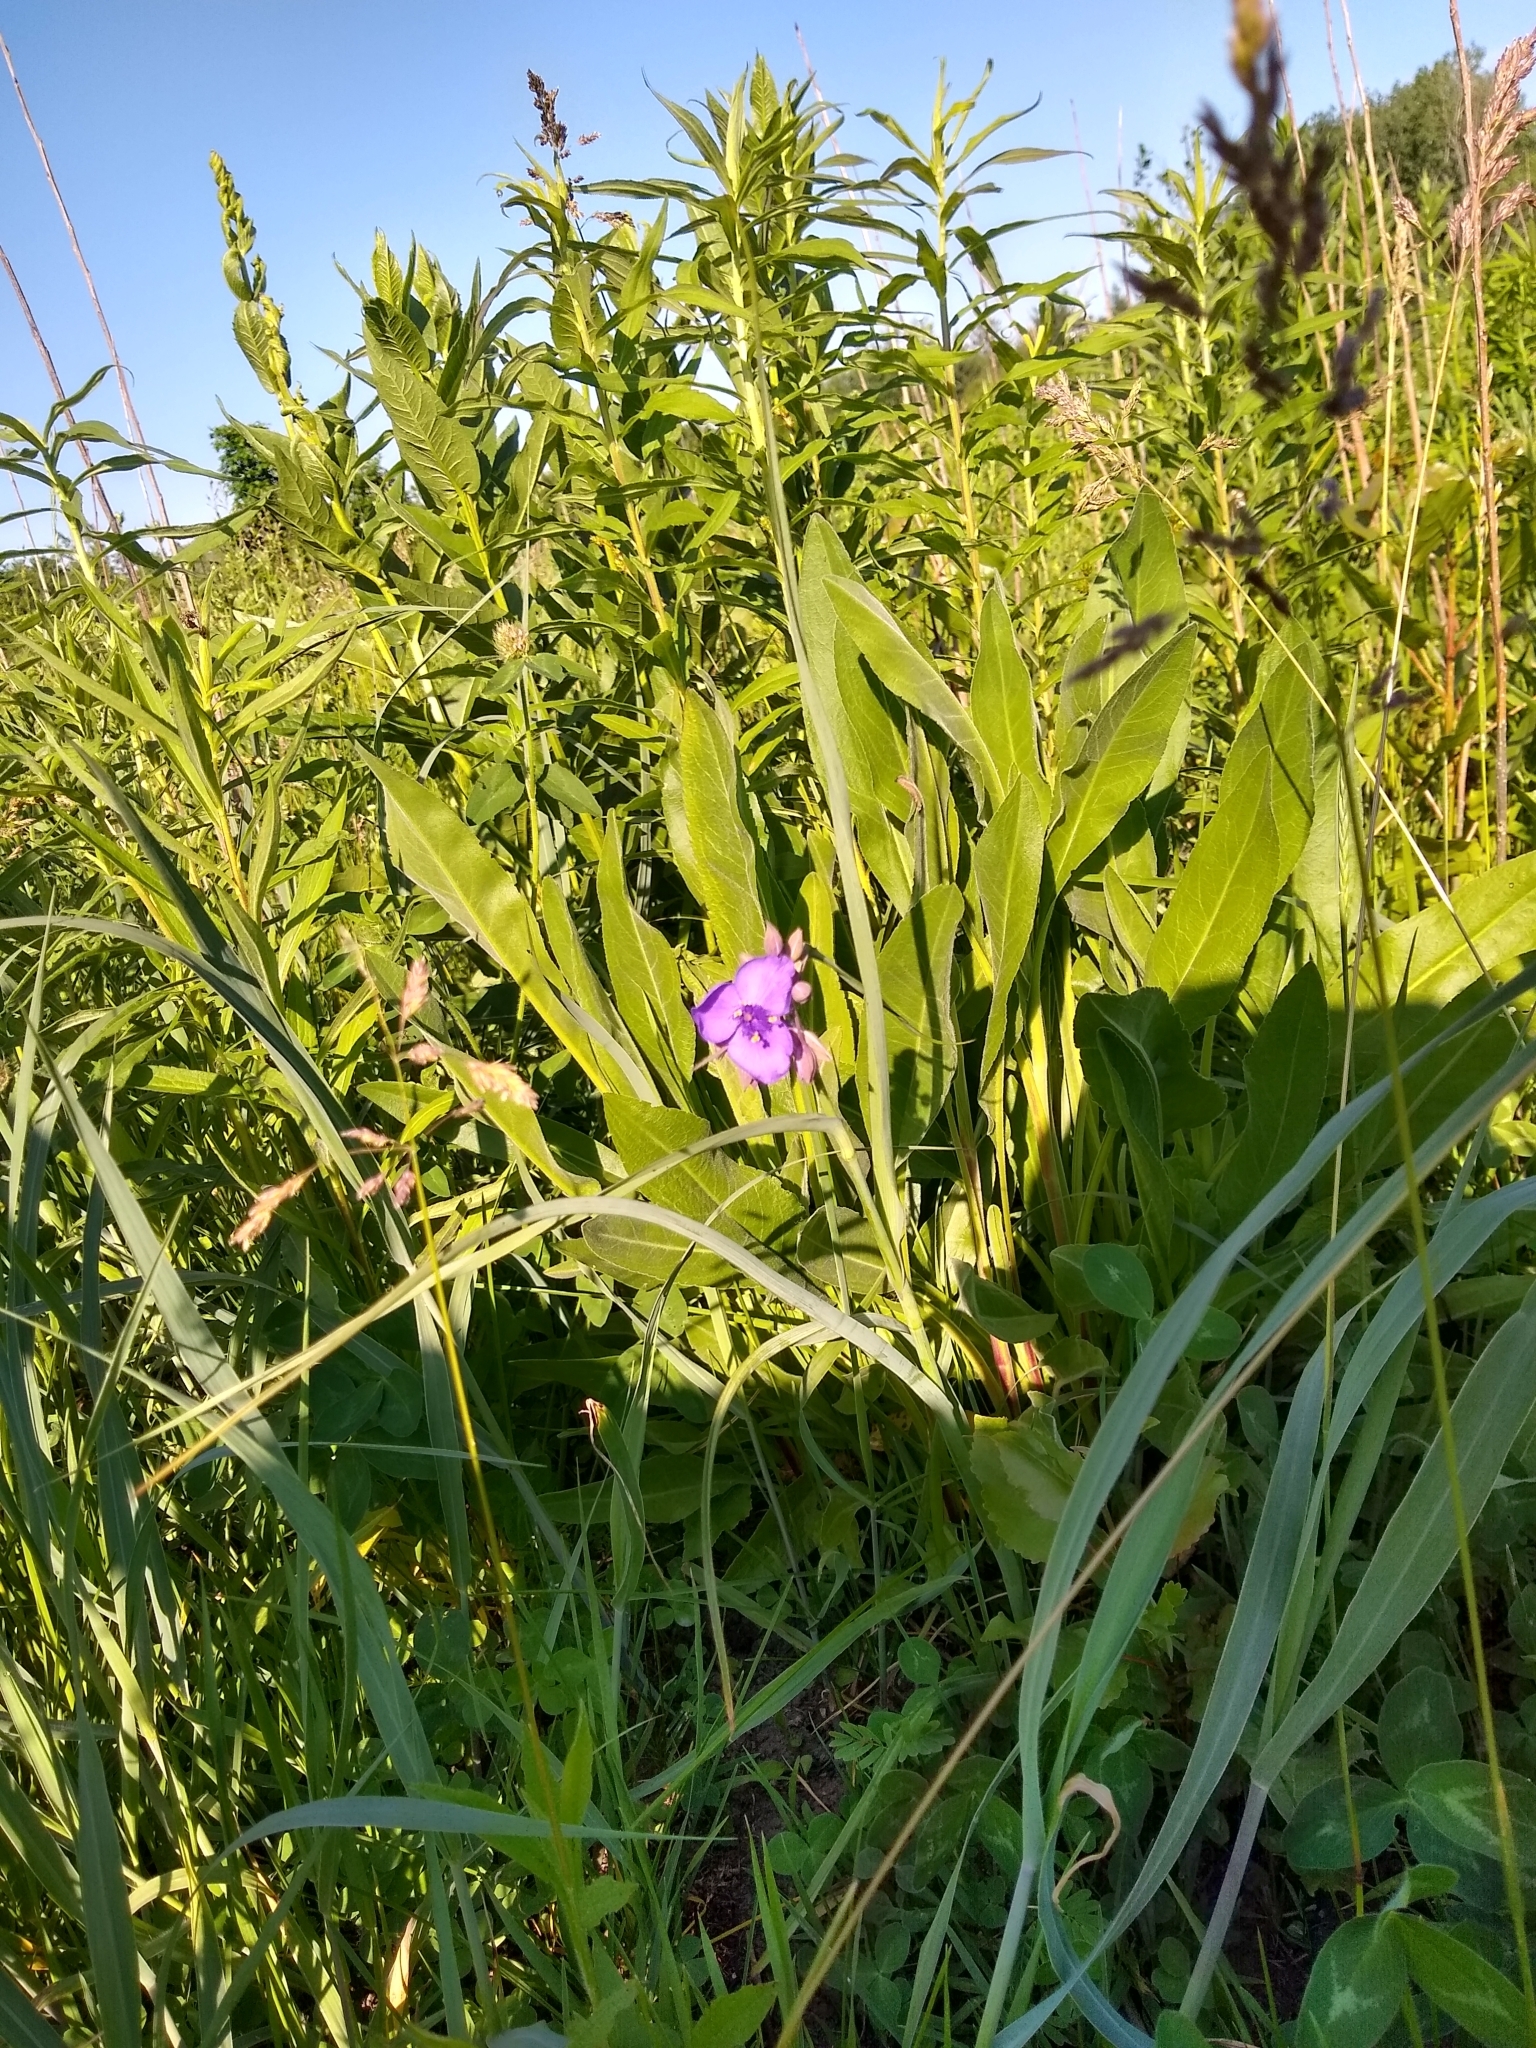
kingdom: Plantae
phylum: Tracheophyta
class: Liliopsida
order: Commelinales
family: Commelinaceae
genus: Tradescantia
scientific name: Tradescantia ohiensis
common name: Ohio spiderwort
